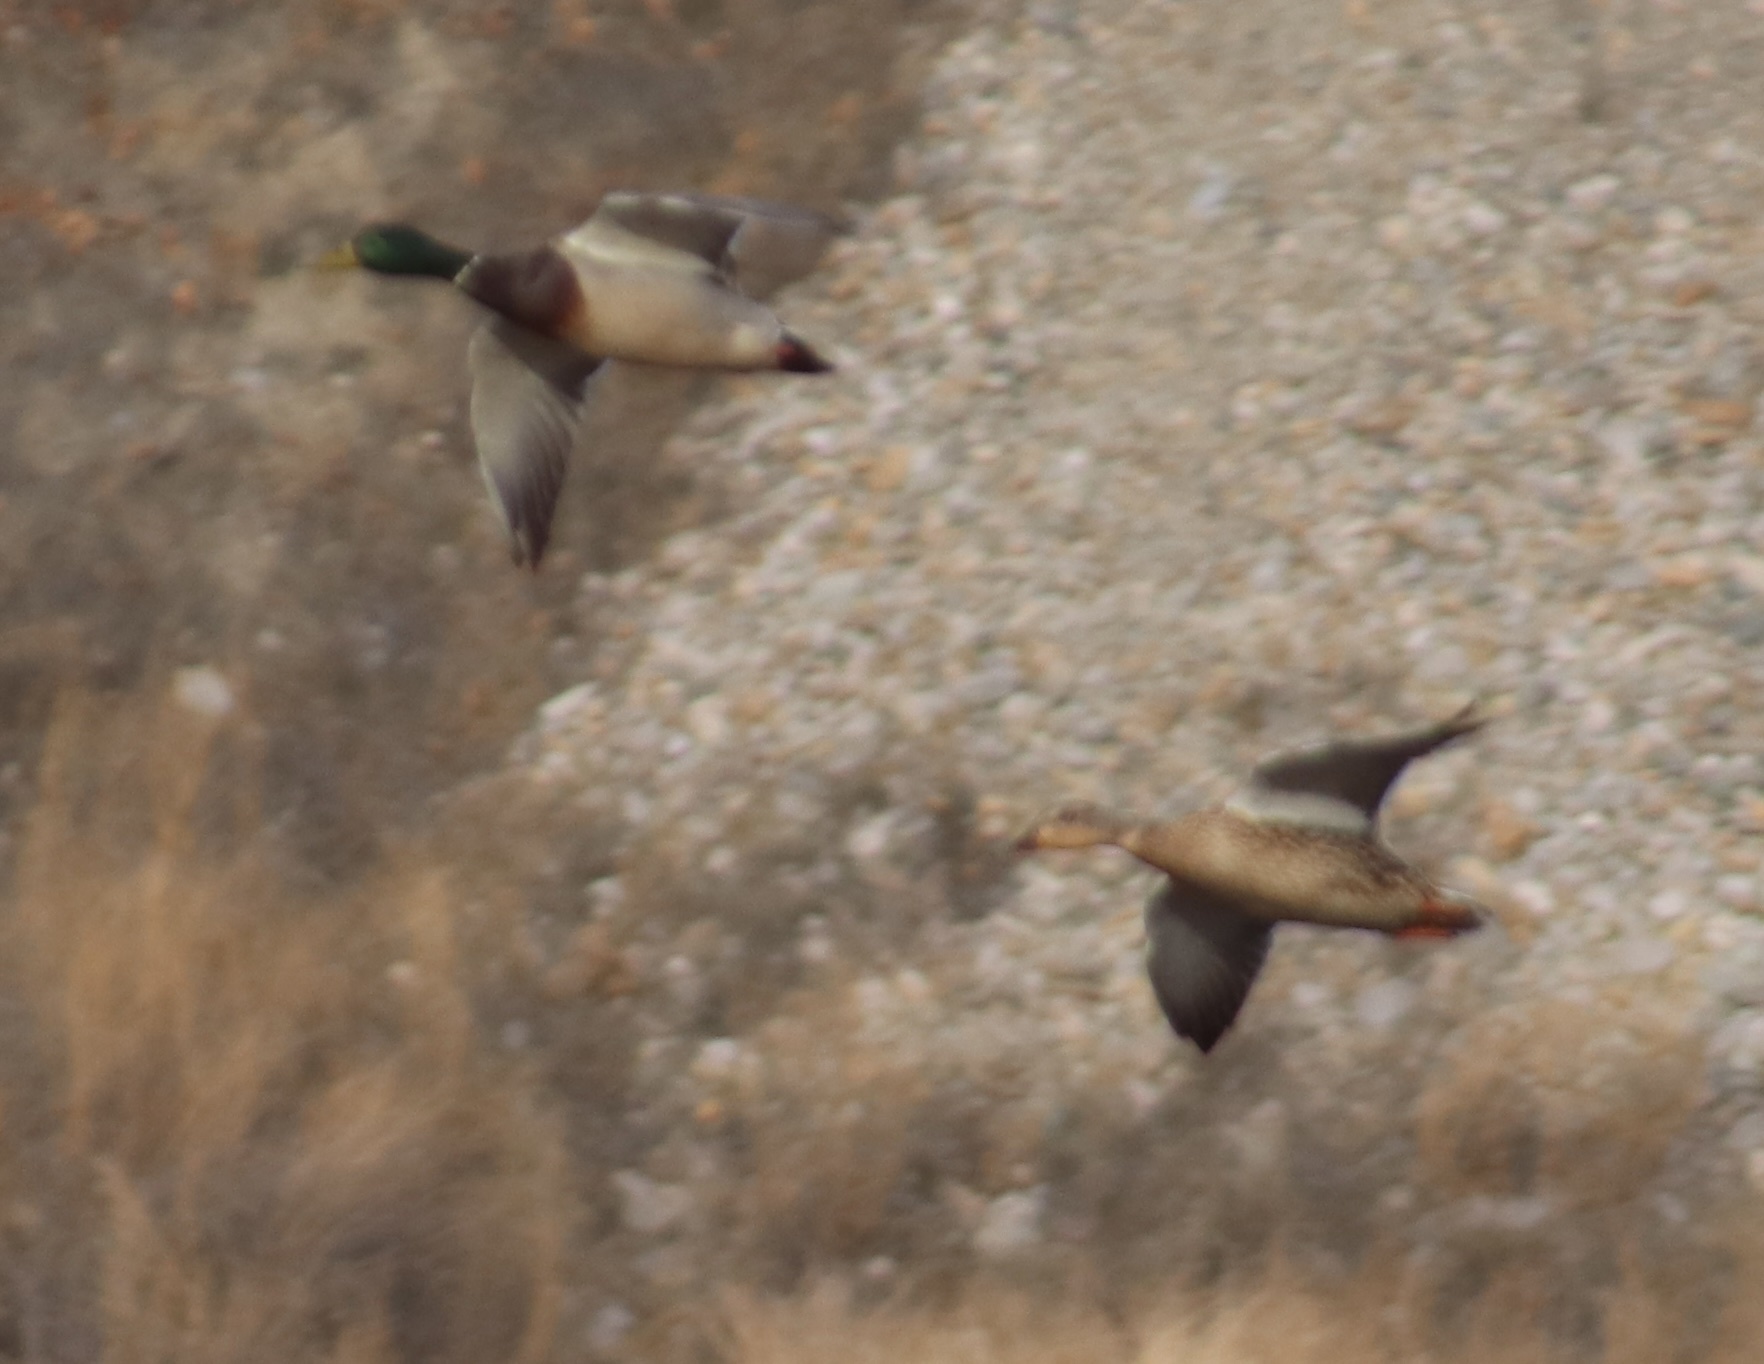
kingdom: Animalia
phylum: Chordata
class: Aves
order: Anseriformes
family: Anatidae
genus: Anas
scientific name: Anas platyrhynchos
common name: Mallard
